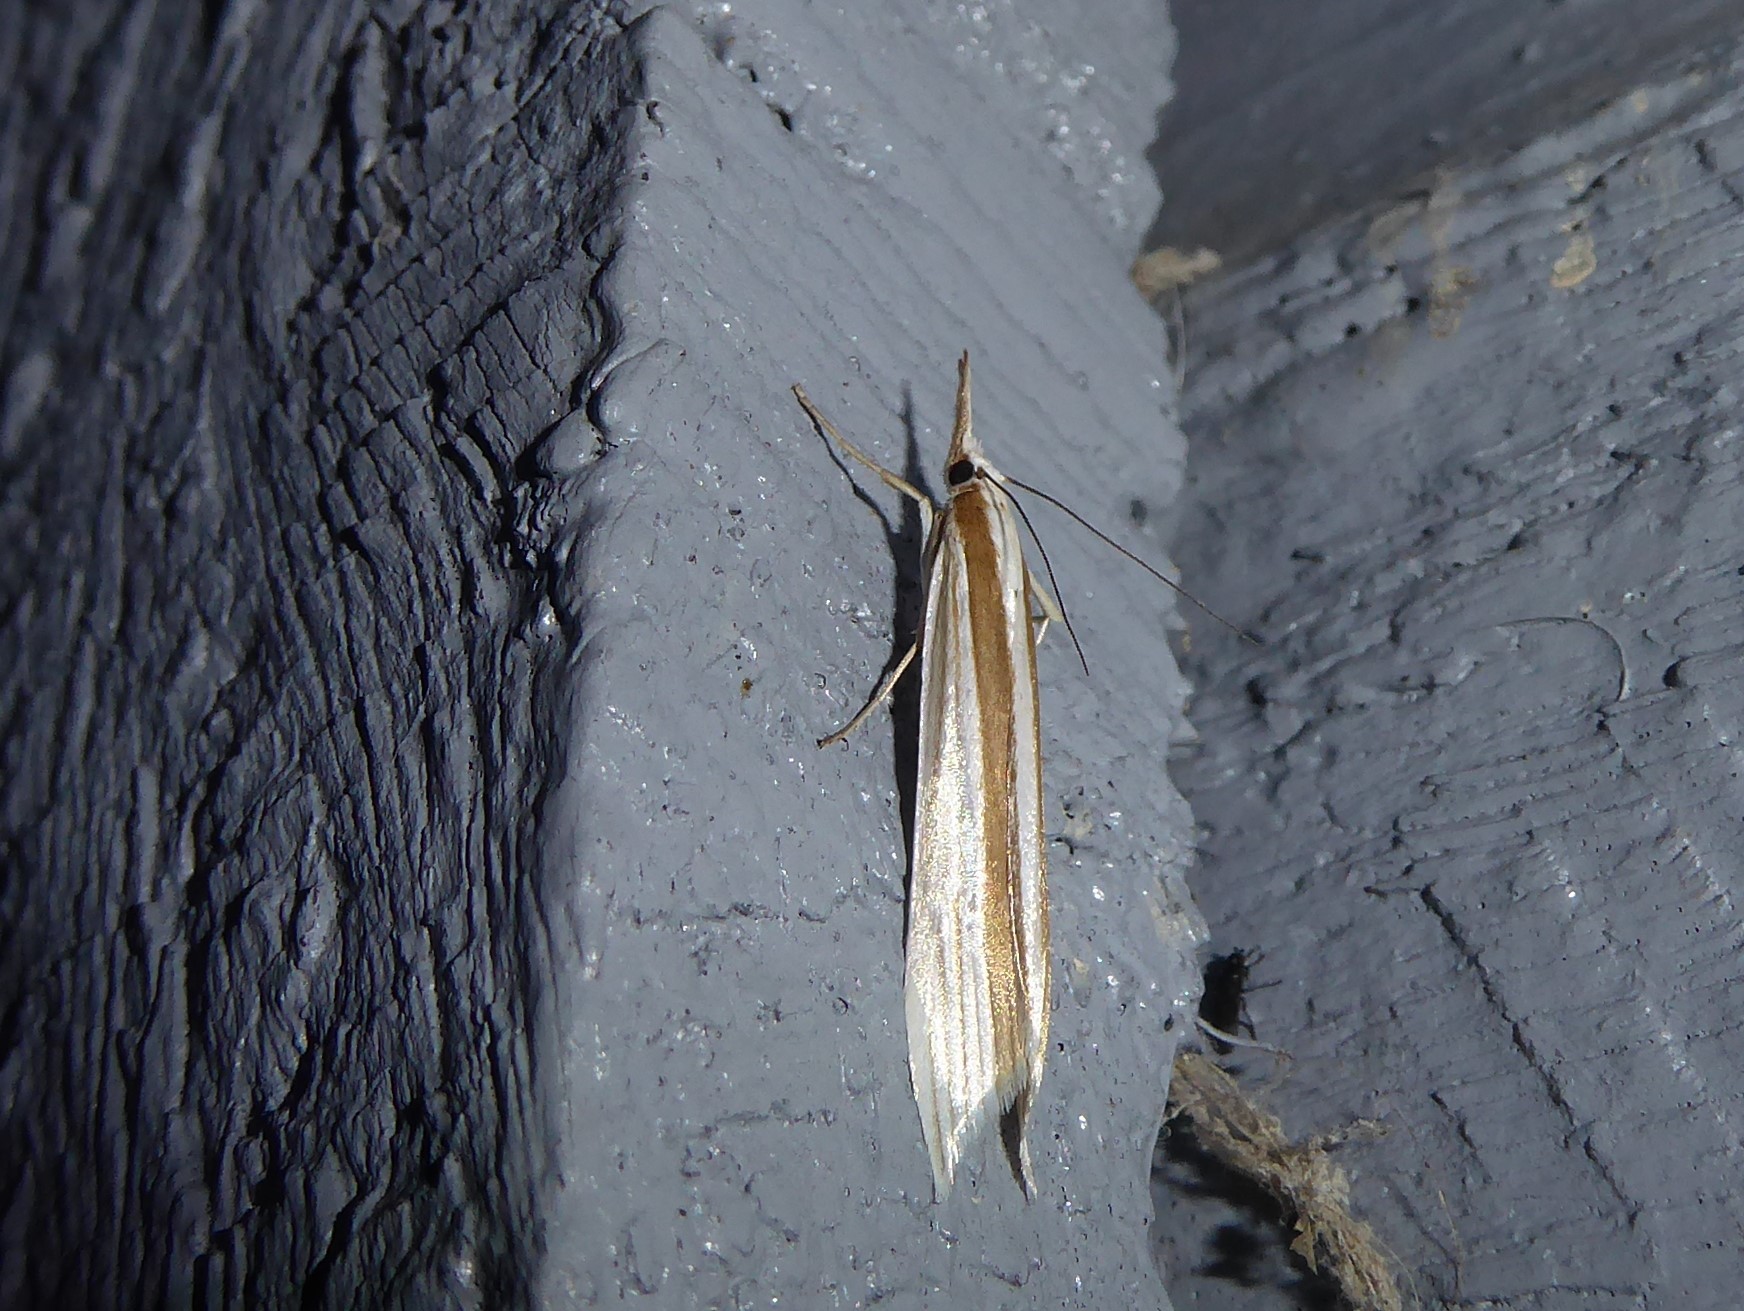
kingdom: Animalia
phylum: Arthropoda
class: Insecta
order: Lepidoptera
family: Crambidae
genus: Orocrambus
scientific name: Orocrambus angustipennis
